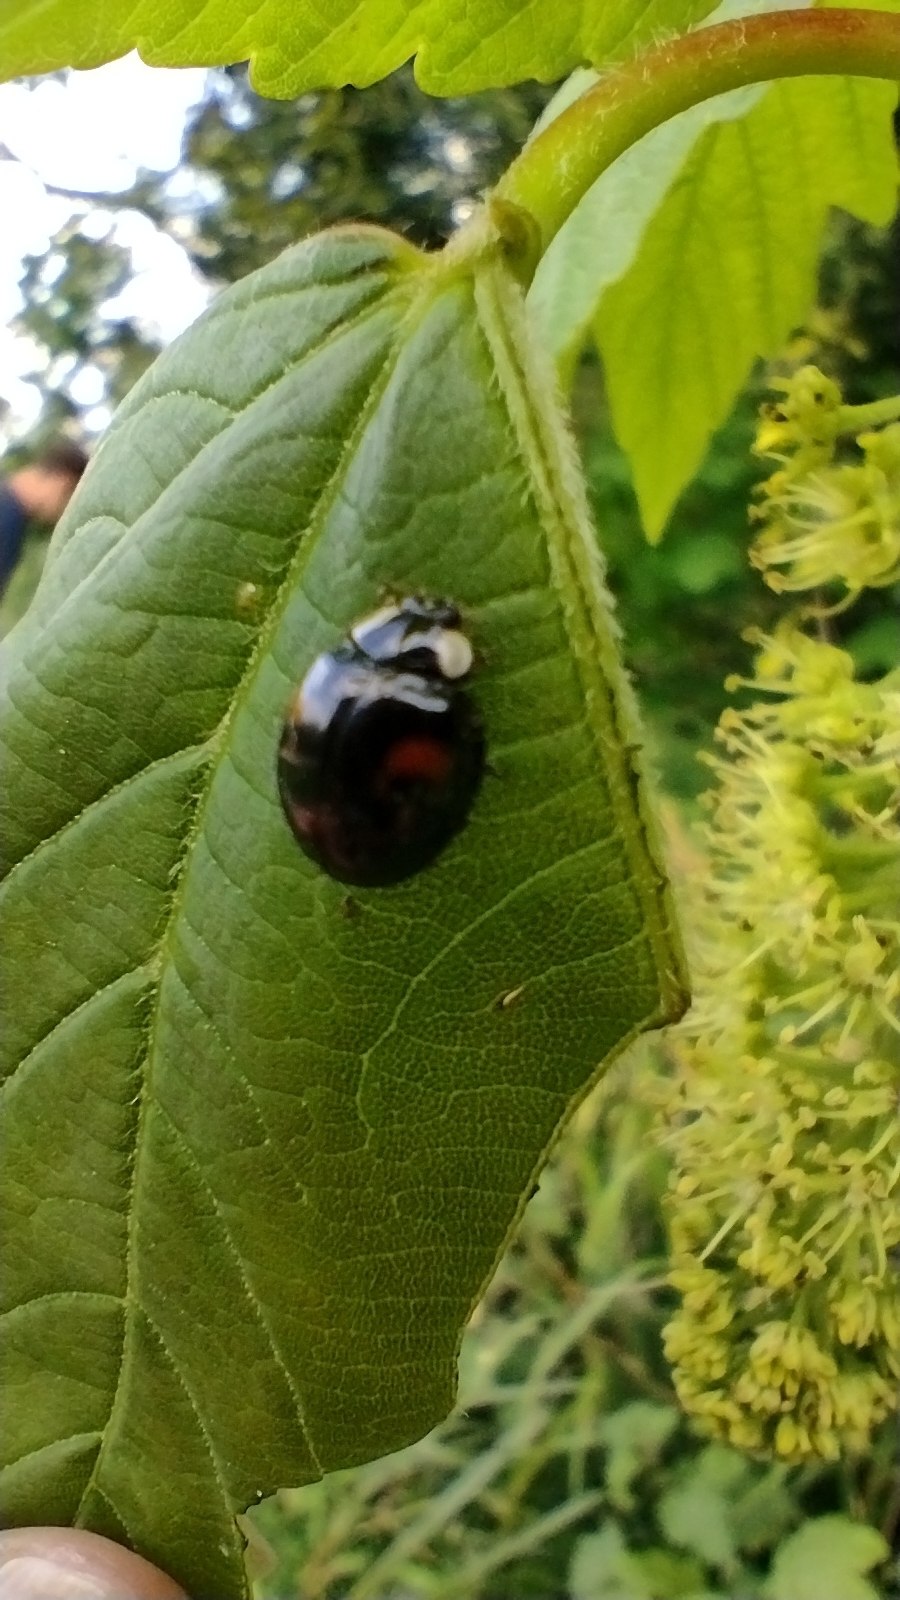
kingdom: Animalia
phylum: Arthropoda
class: Insecta
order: Coleoptera
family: Coccinellidae
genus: Harmonia
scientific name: Harmonia axyridis
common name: Harlequin ladybird
